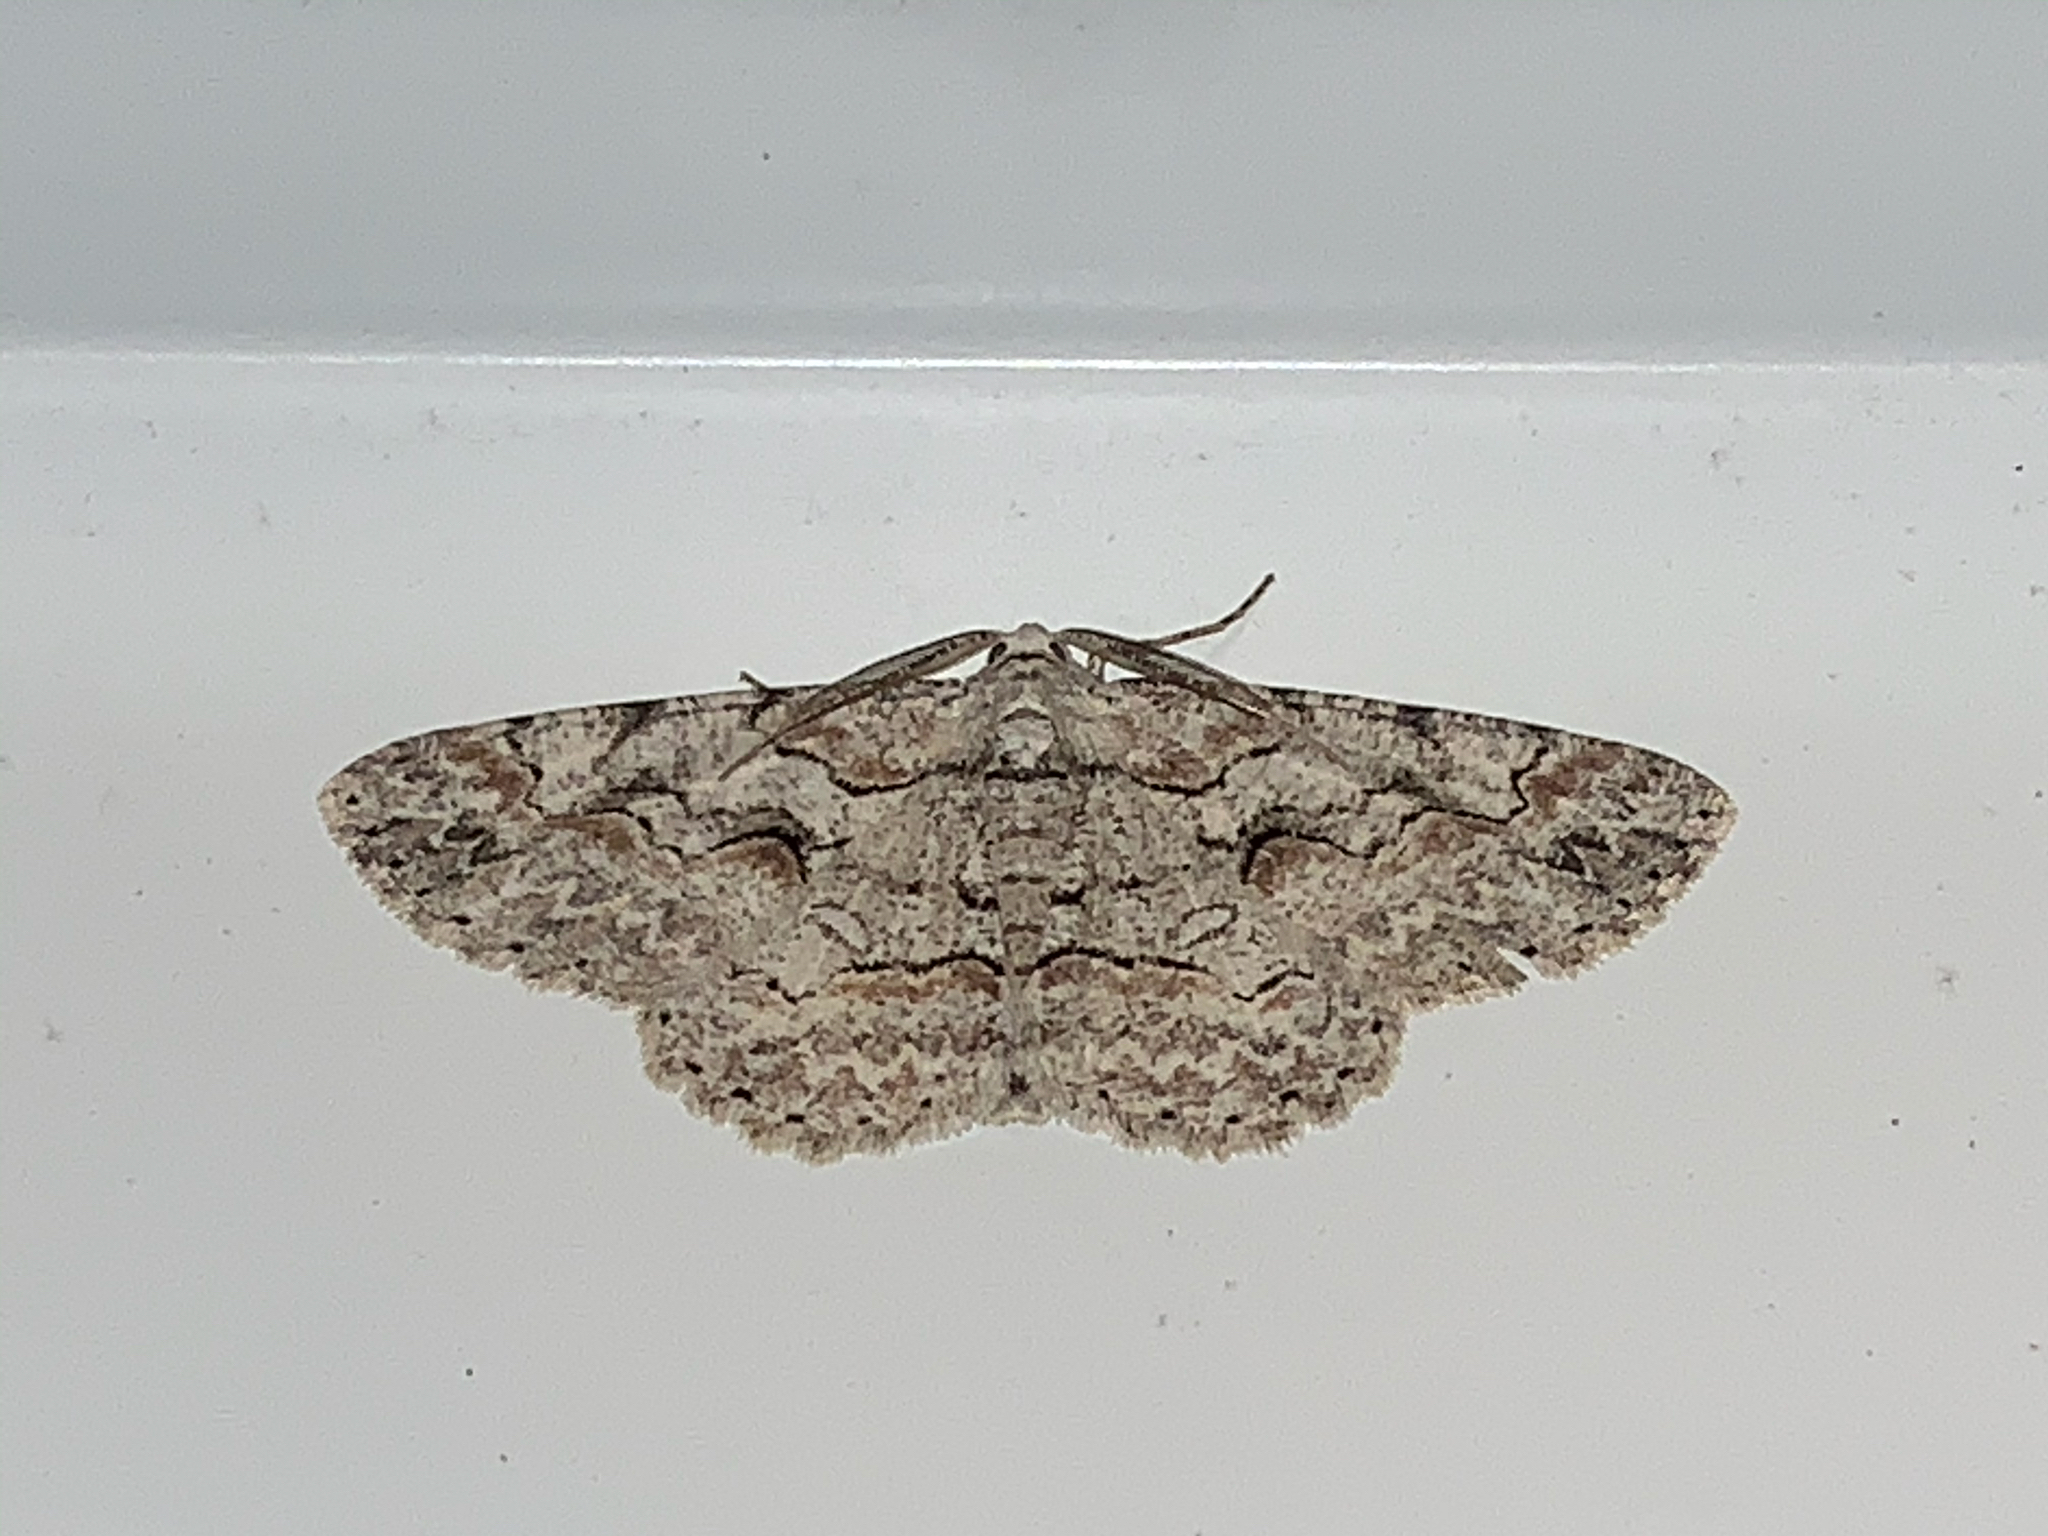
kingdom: Animalia
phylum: Arthropoda
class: Insecta
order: Lepidoptera
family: Geometridae
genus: Iridopsis
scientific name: Iridopsis defectaria
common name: Brown-shaded gray
